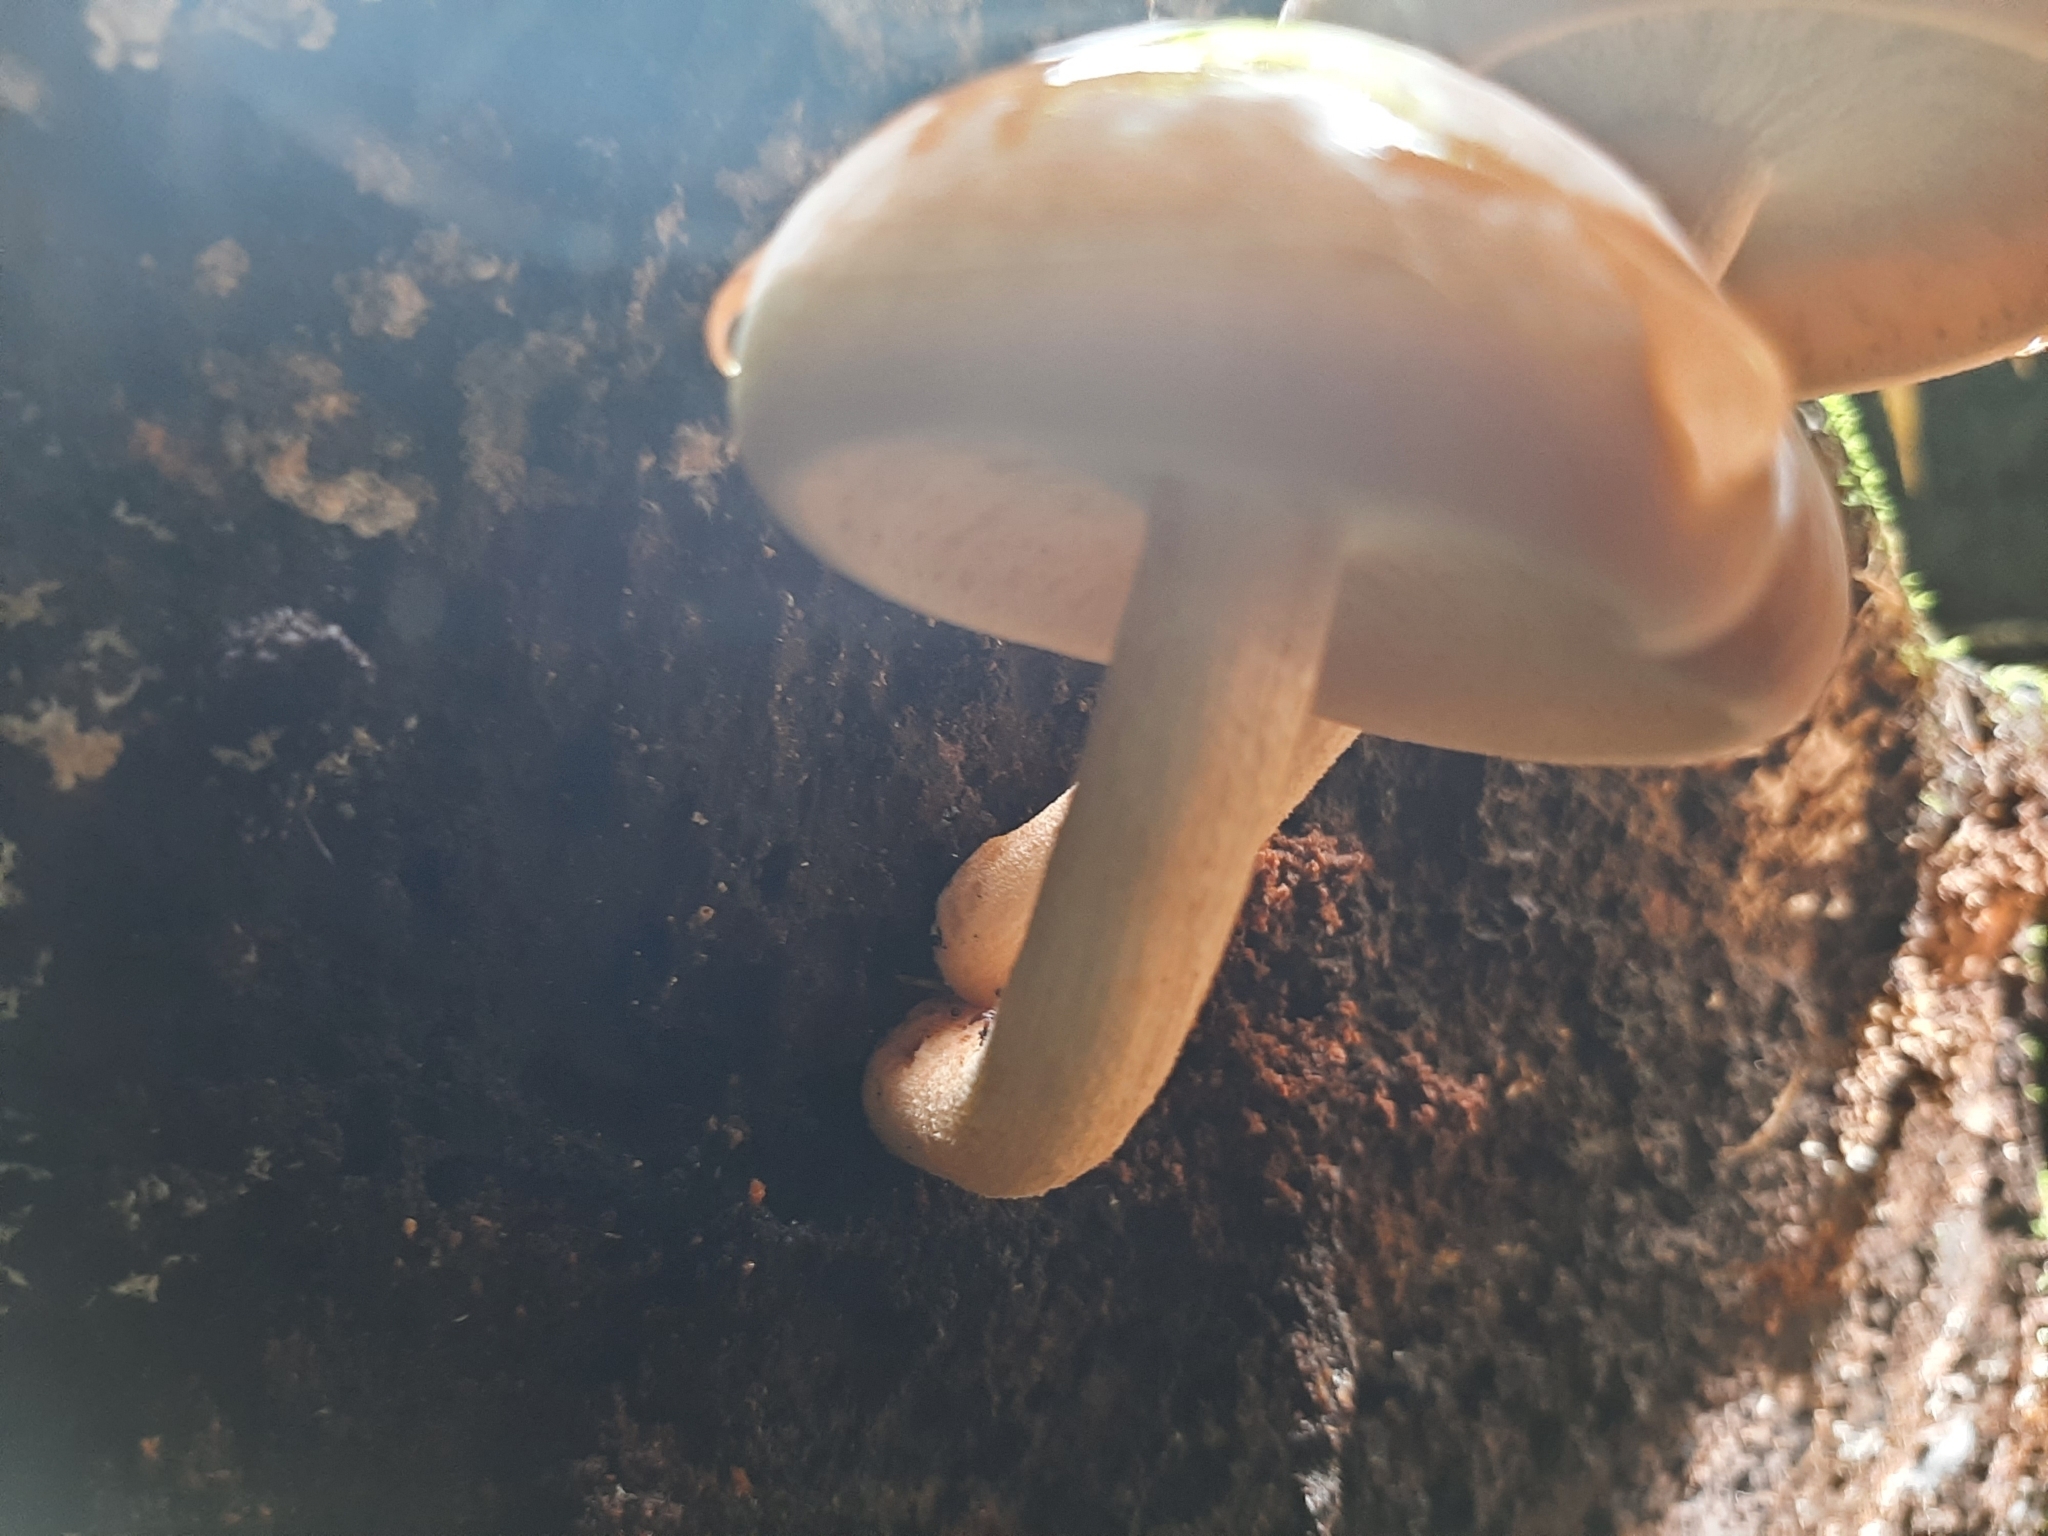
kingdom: Fungi
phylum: Basidiomycota
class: Agaricomycetes
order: Agaricales
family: Tubariaceae
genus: Cyclocybe
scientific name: Cyclocybe parasitica
